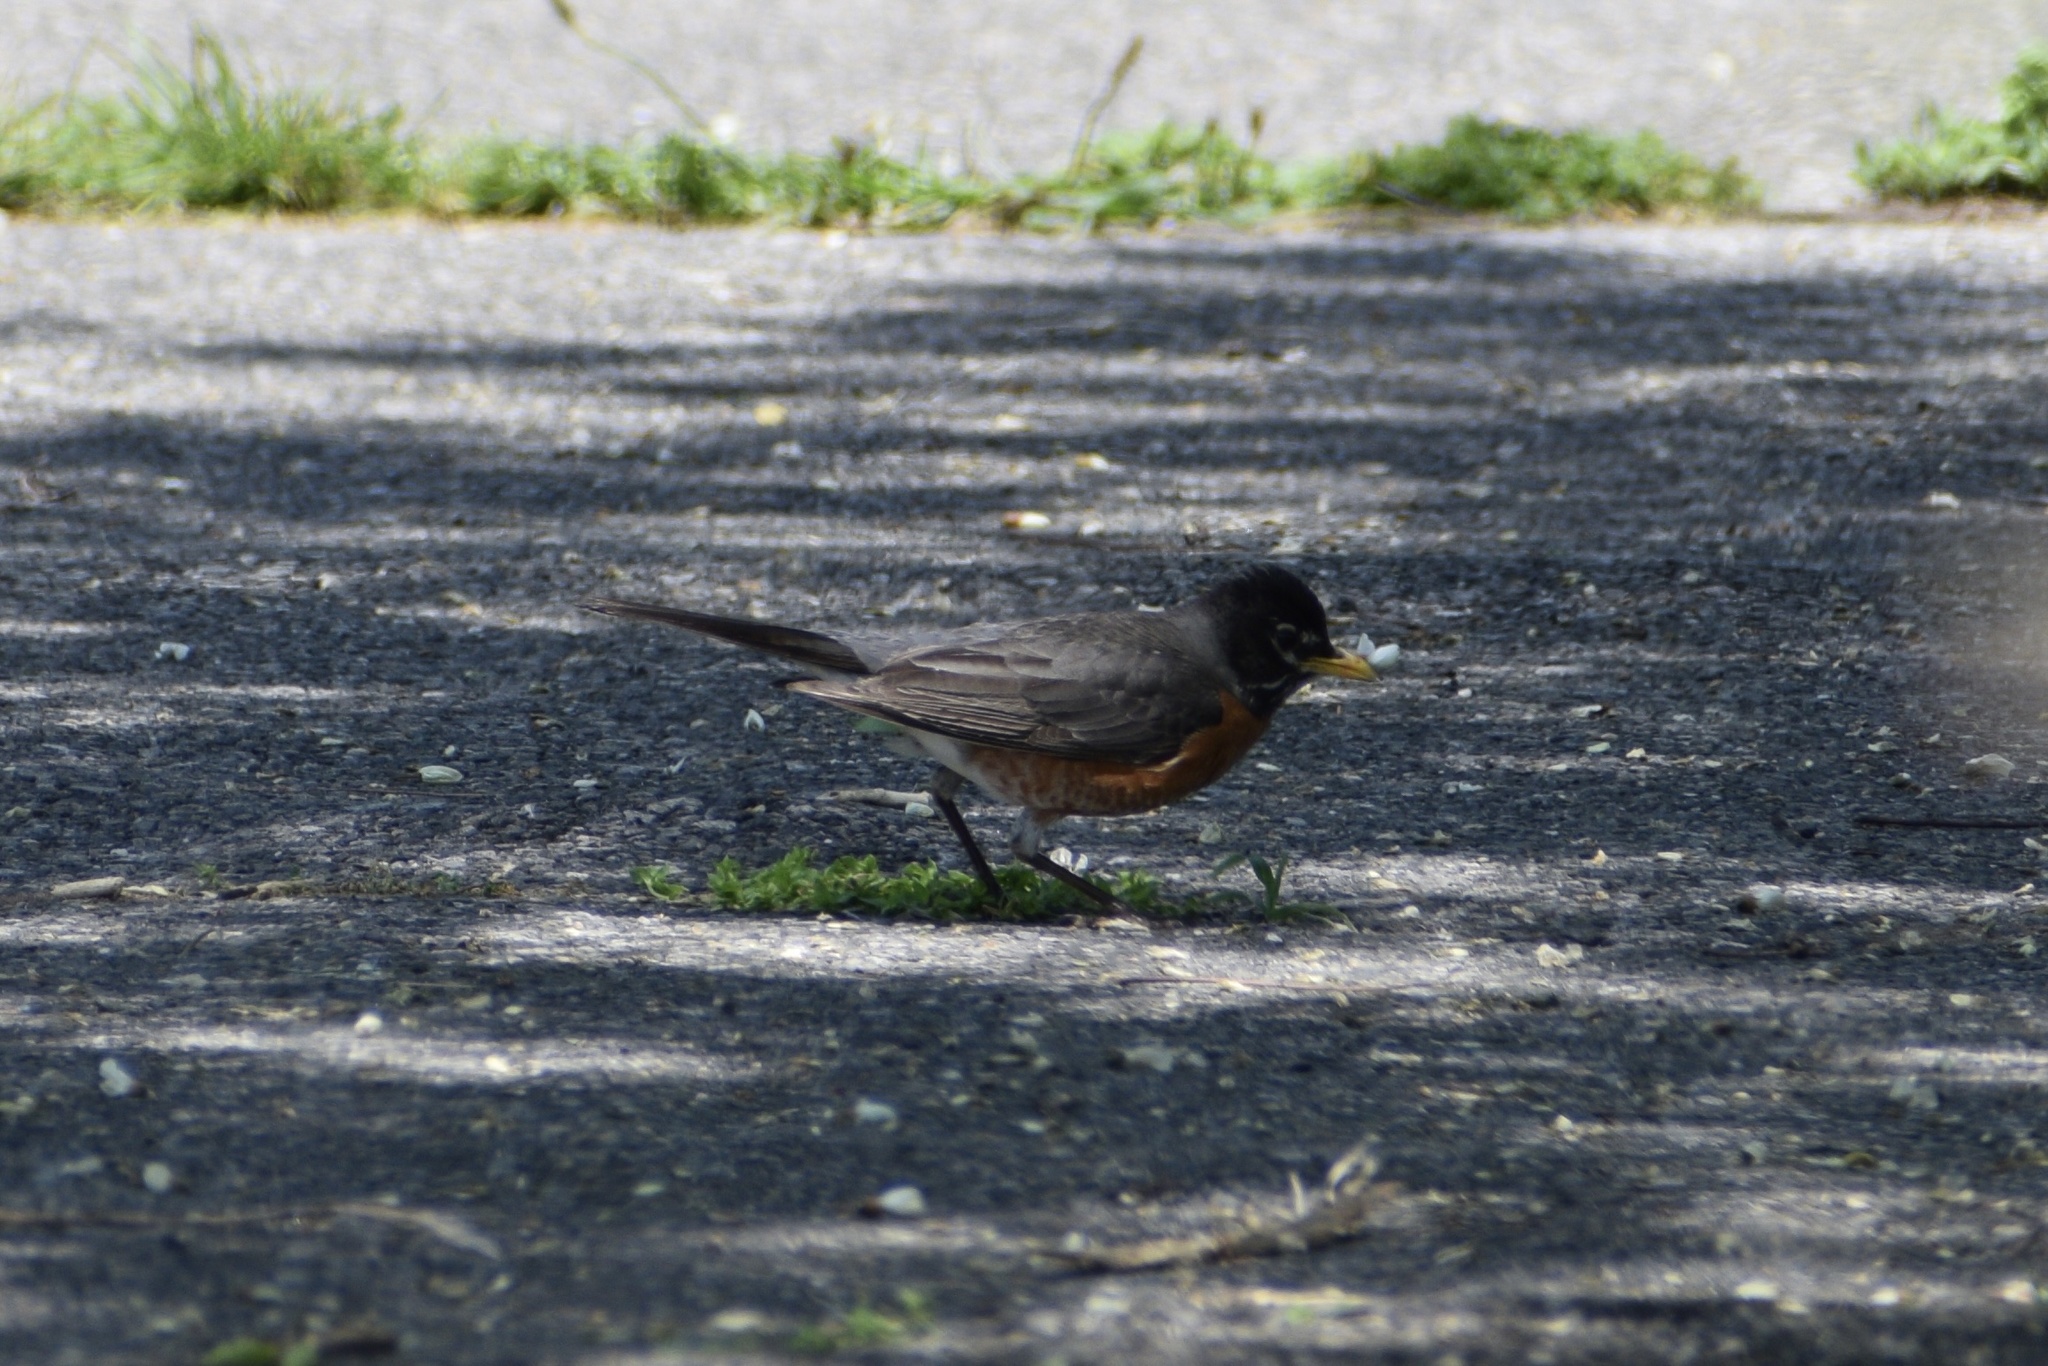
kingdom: Animalia
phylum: Chordata
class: Aves
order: Passeriformes
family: Turdidae
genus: Turdus
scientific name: Turdus migratorius
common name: American robin
